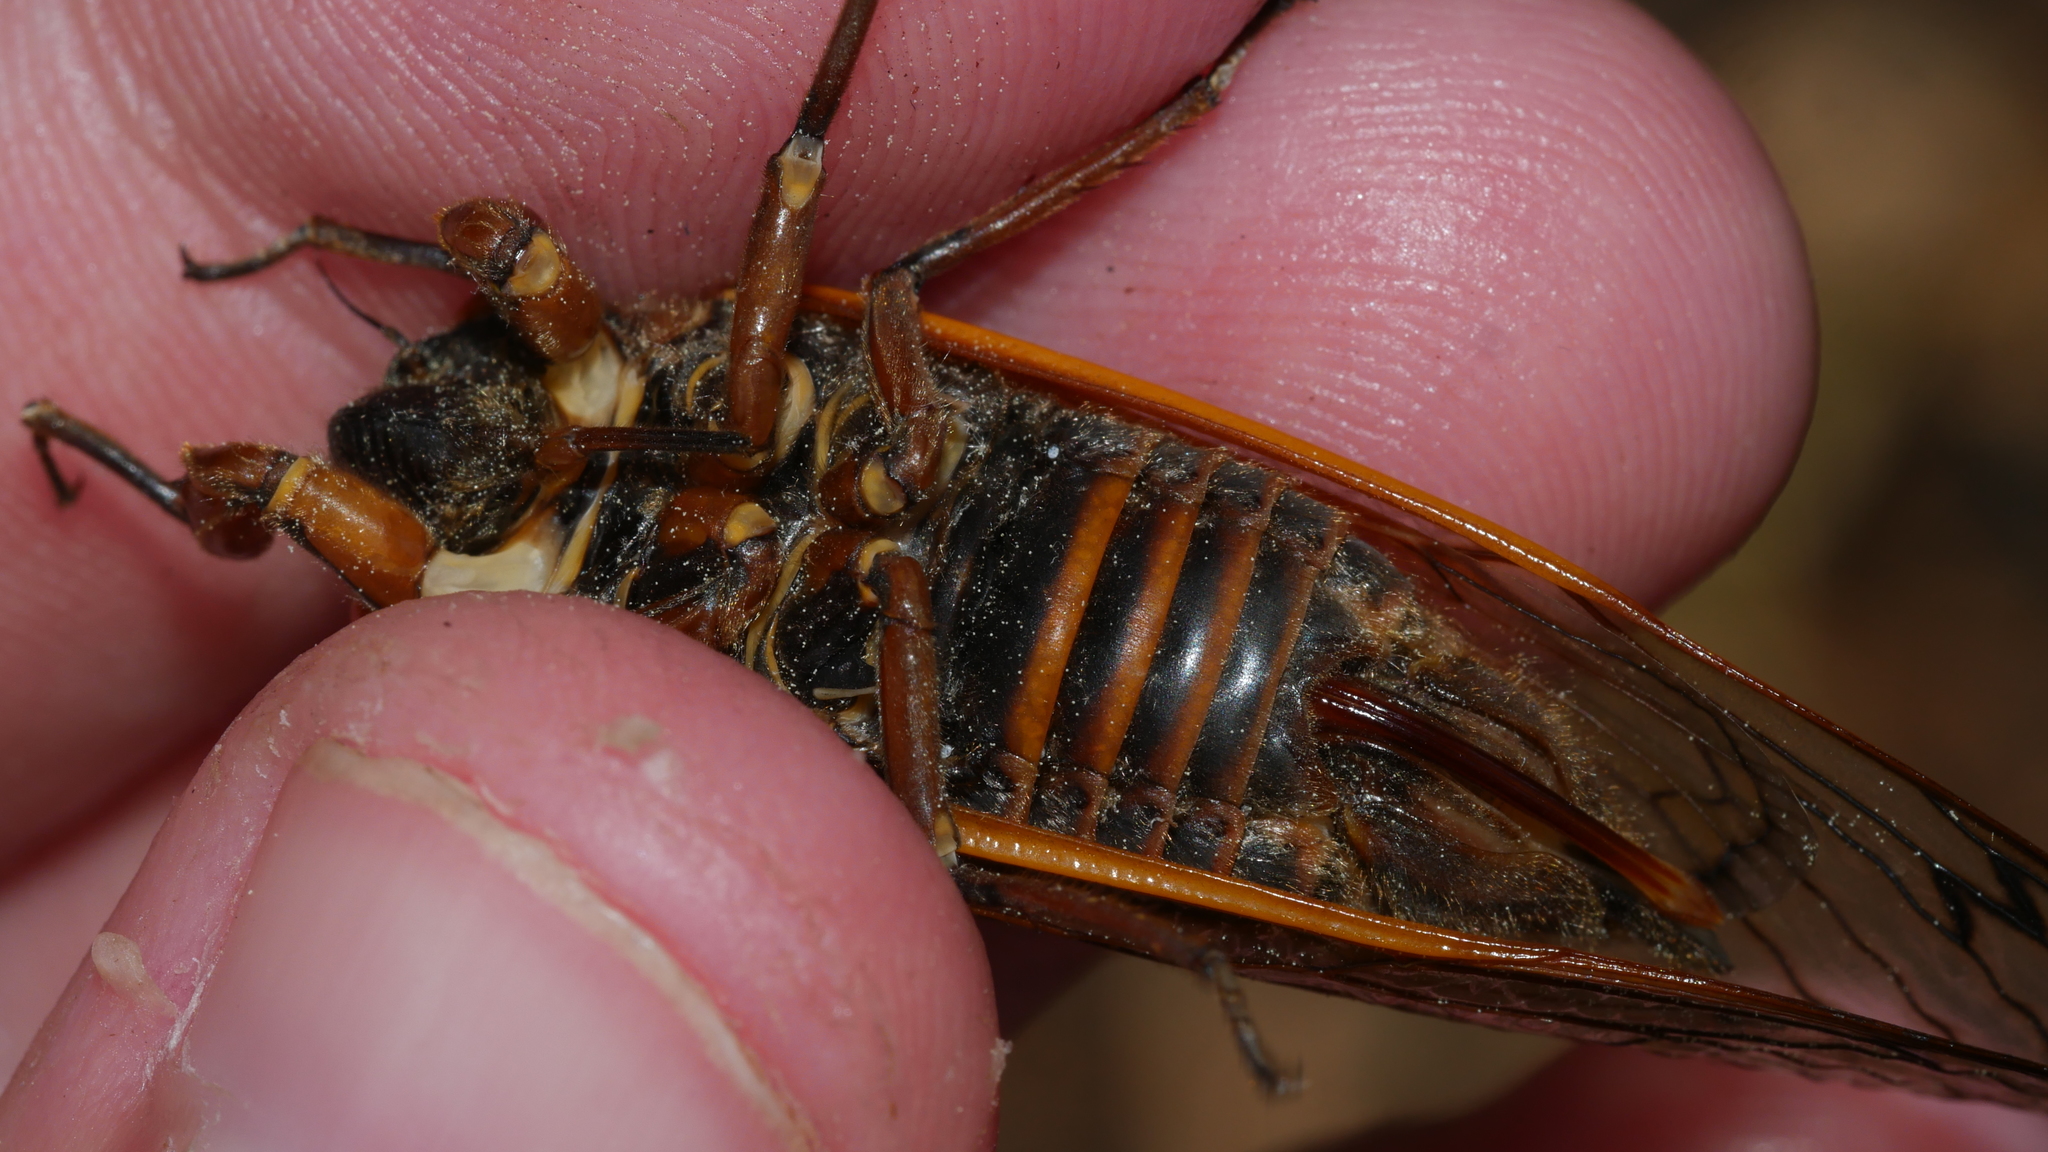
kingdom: Animalia
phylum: Arthropoda
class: Insecta
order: Hemiptera
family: Cicadidae
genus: Magicicada
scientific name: Magicicada septendecim
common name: Periodical cicada
